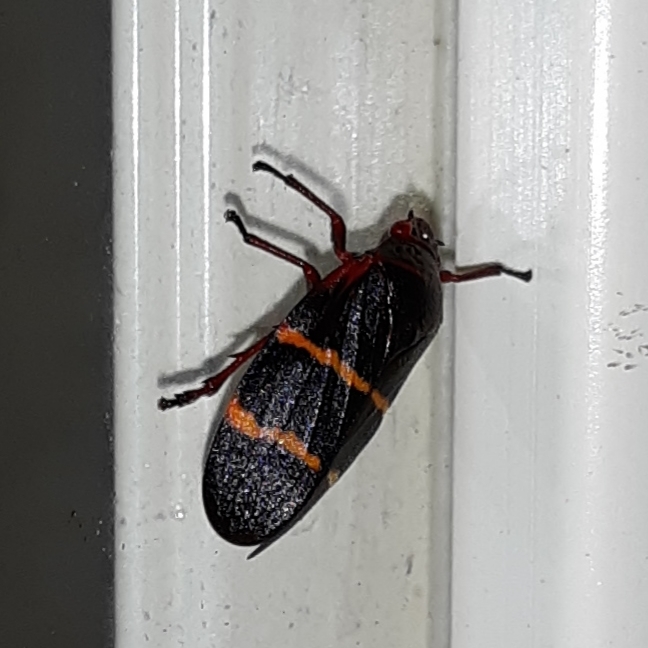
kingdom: Animalia
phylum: Arthropoda
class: Insecta
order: Hemiptera
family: Cercopidae
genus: Prosapia
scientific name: Prosapia bicincta
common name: Twolined spittlebug
